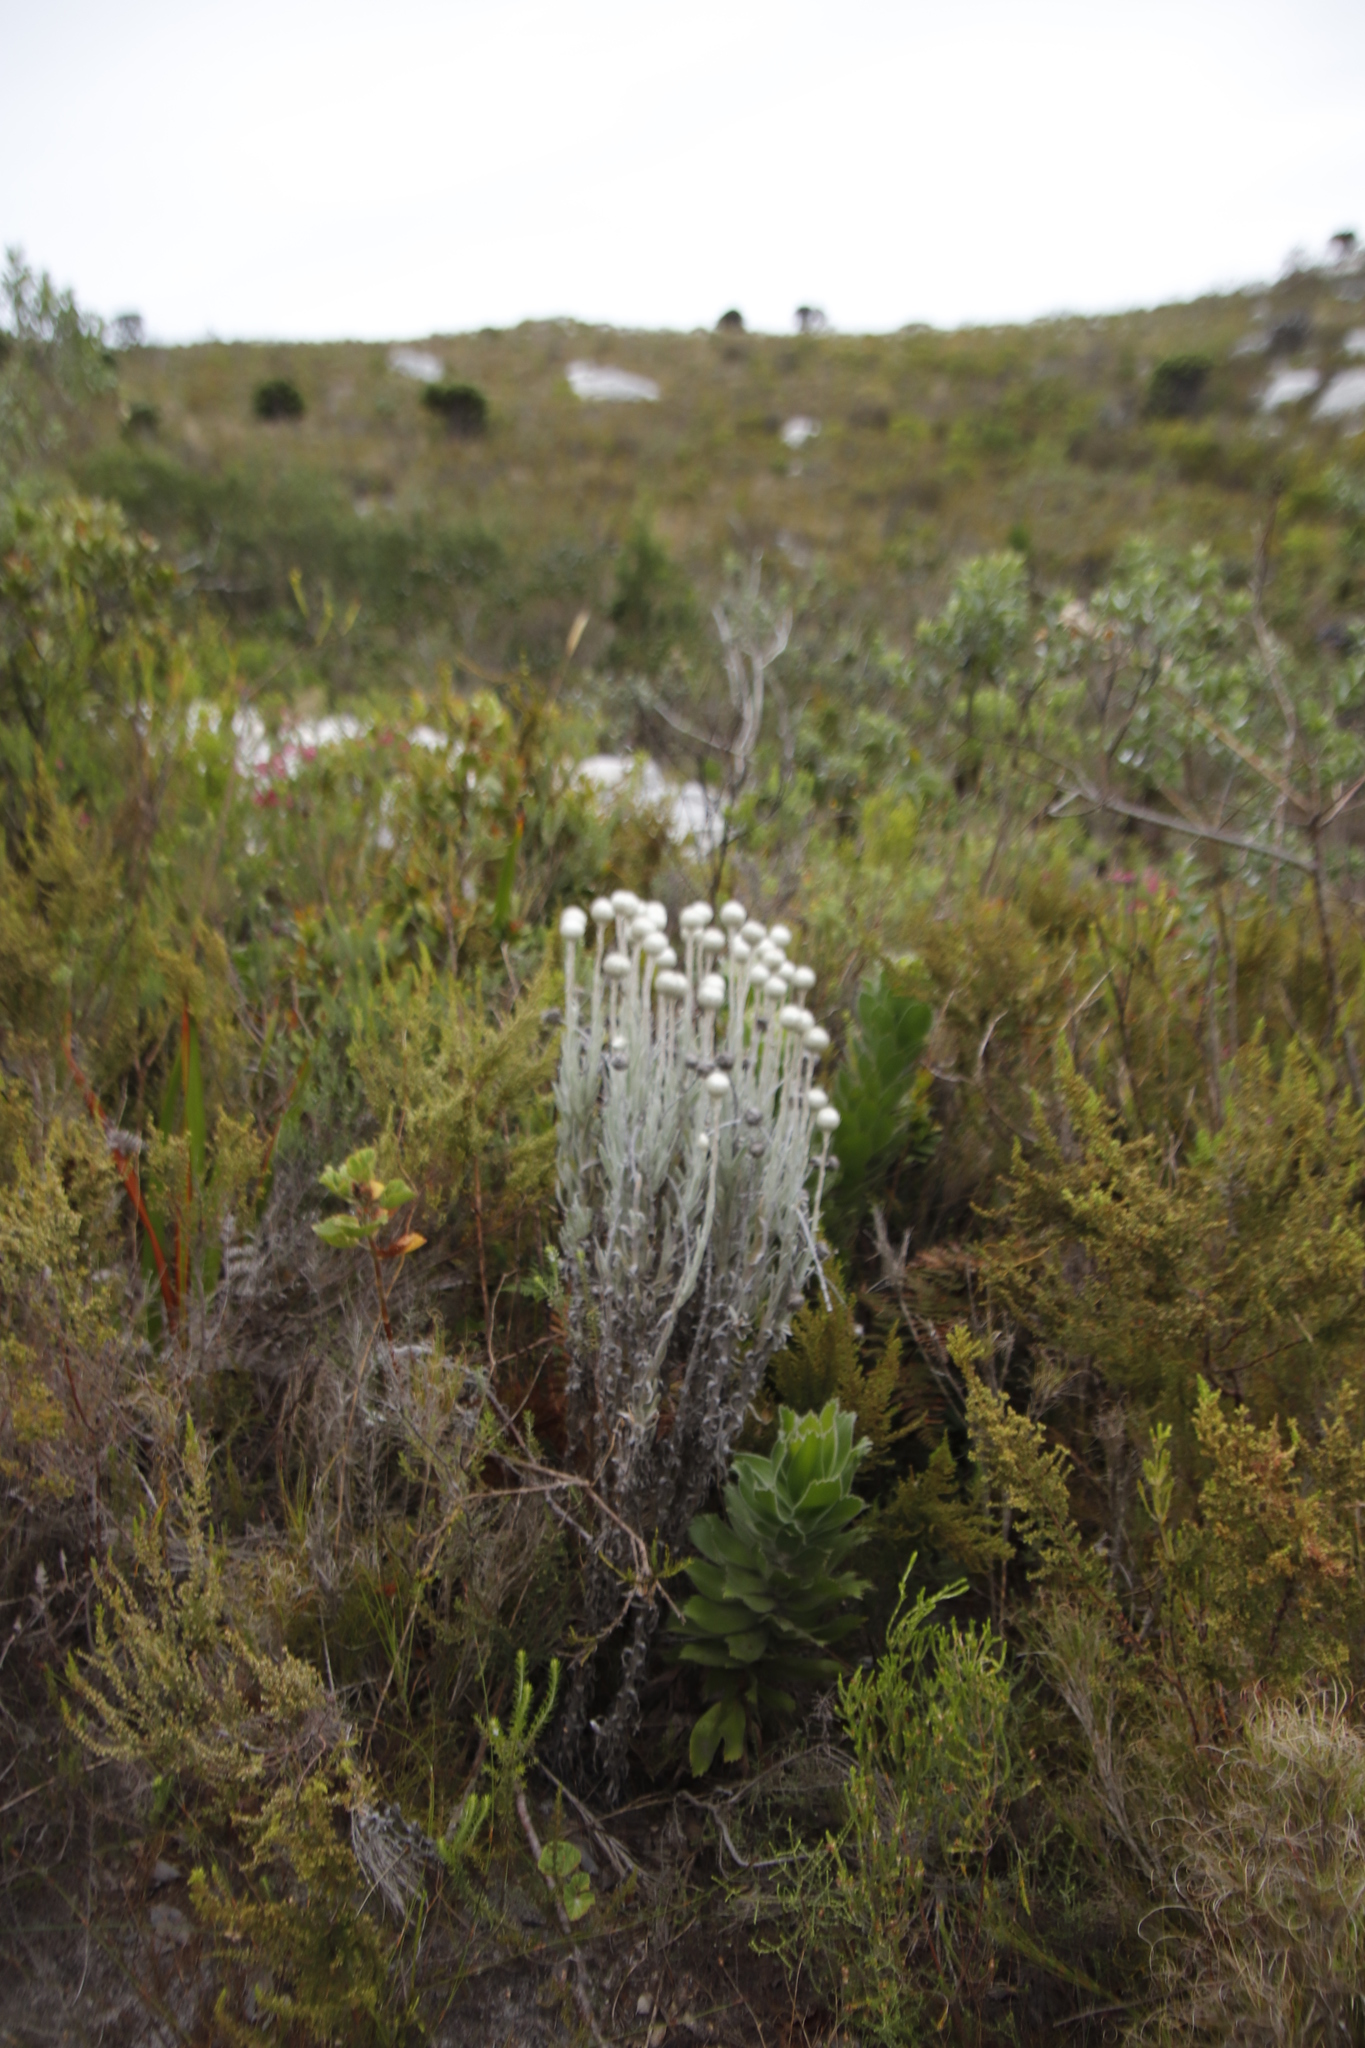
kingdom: Plantae
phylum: Tracheophyta
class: Magnoliopsida
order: Asterales
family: Asteraceae
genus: Syncarpha
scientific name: Syncarpha vestita
